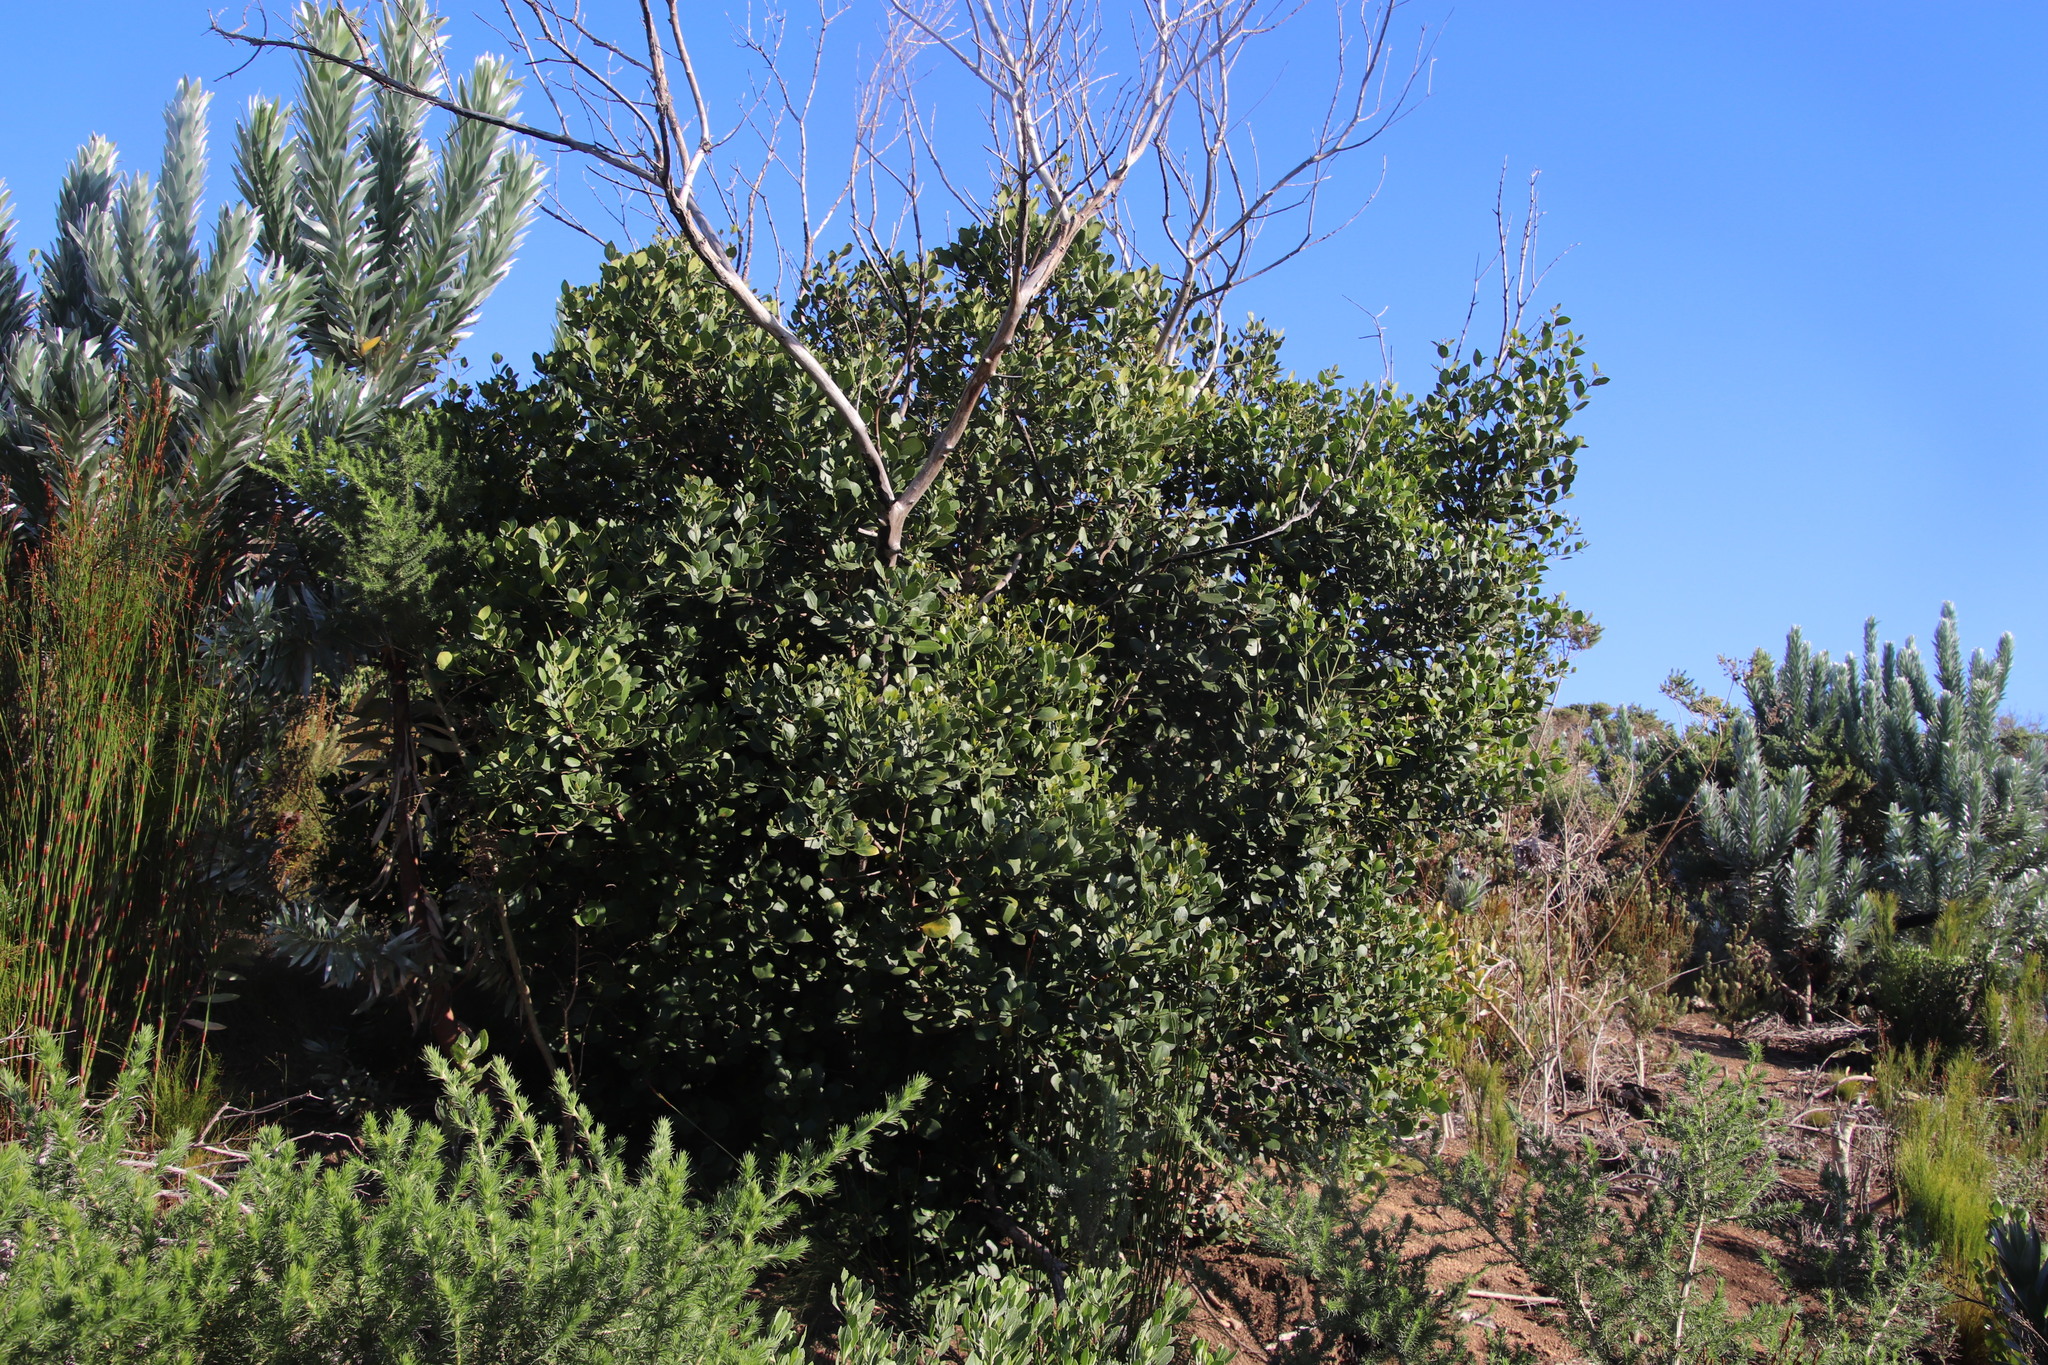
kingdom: Plantae
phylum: Tracheophyta
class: Magnoliopsida
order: Lamiales
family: Oleaceae
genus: Olea
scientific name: Olea capensis
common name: Black ironwood
